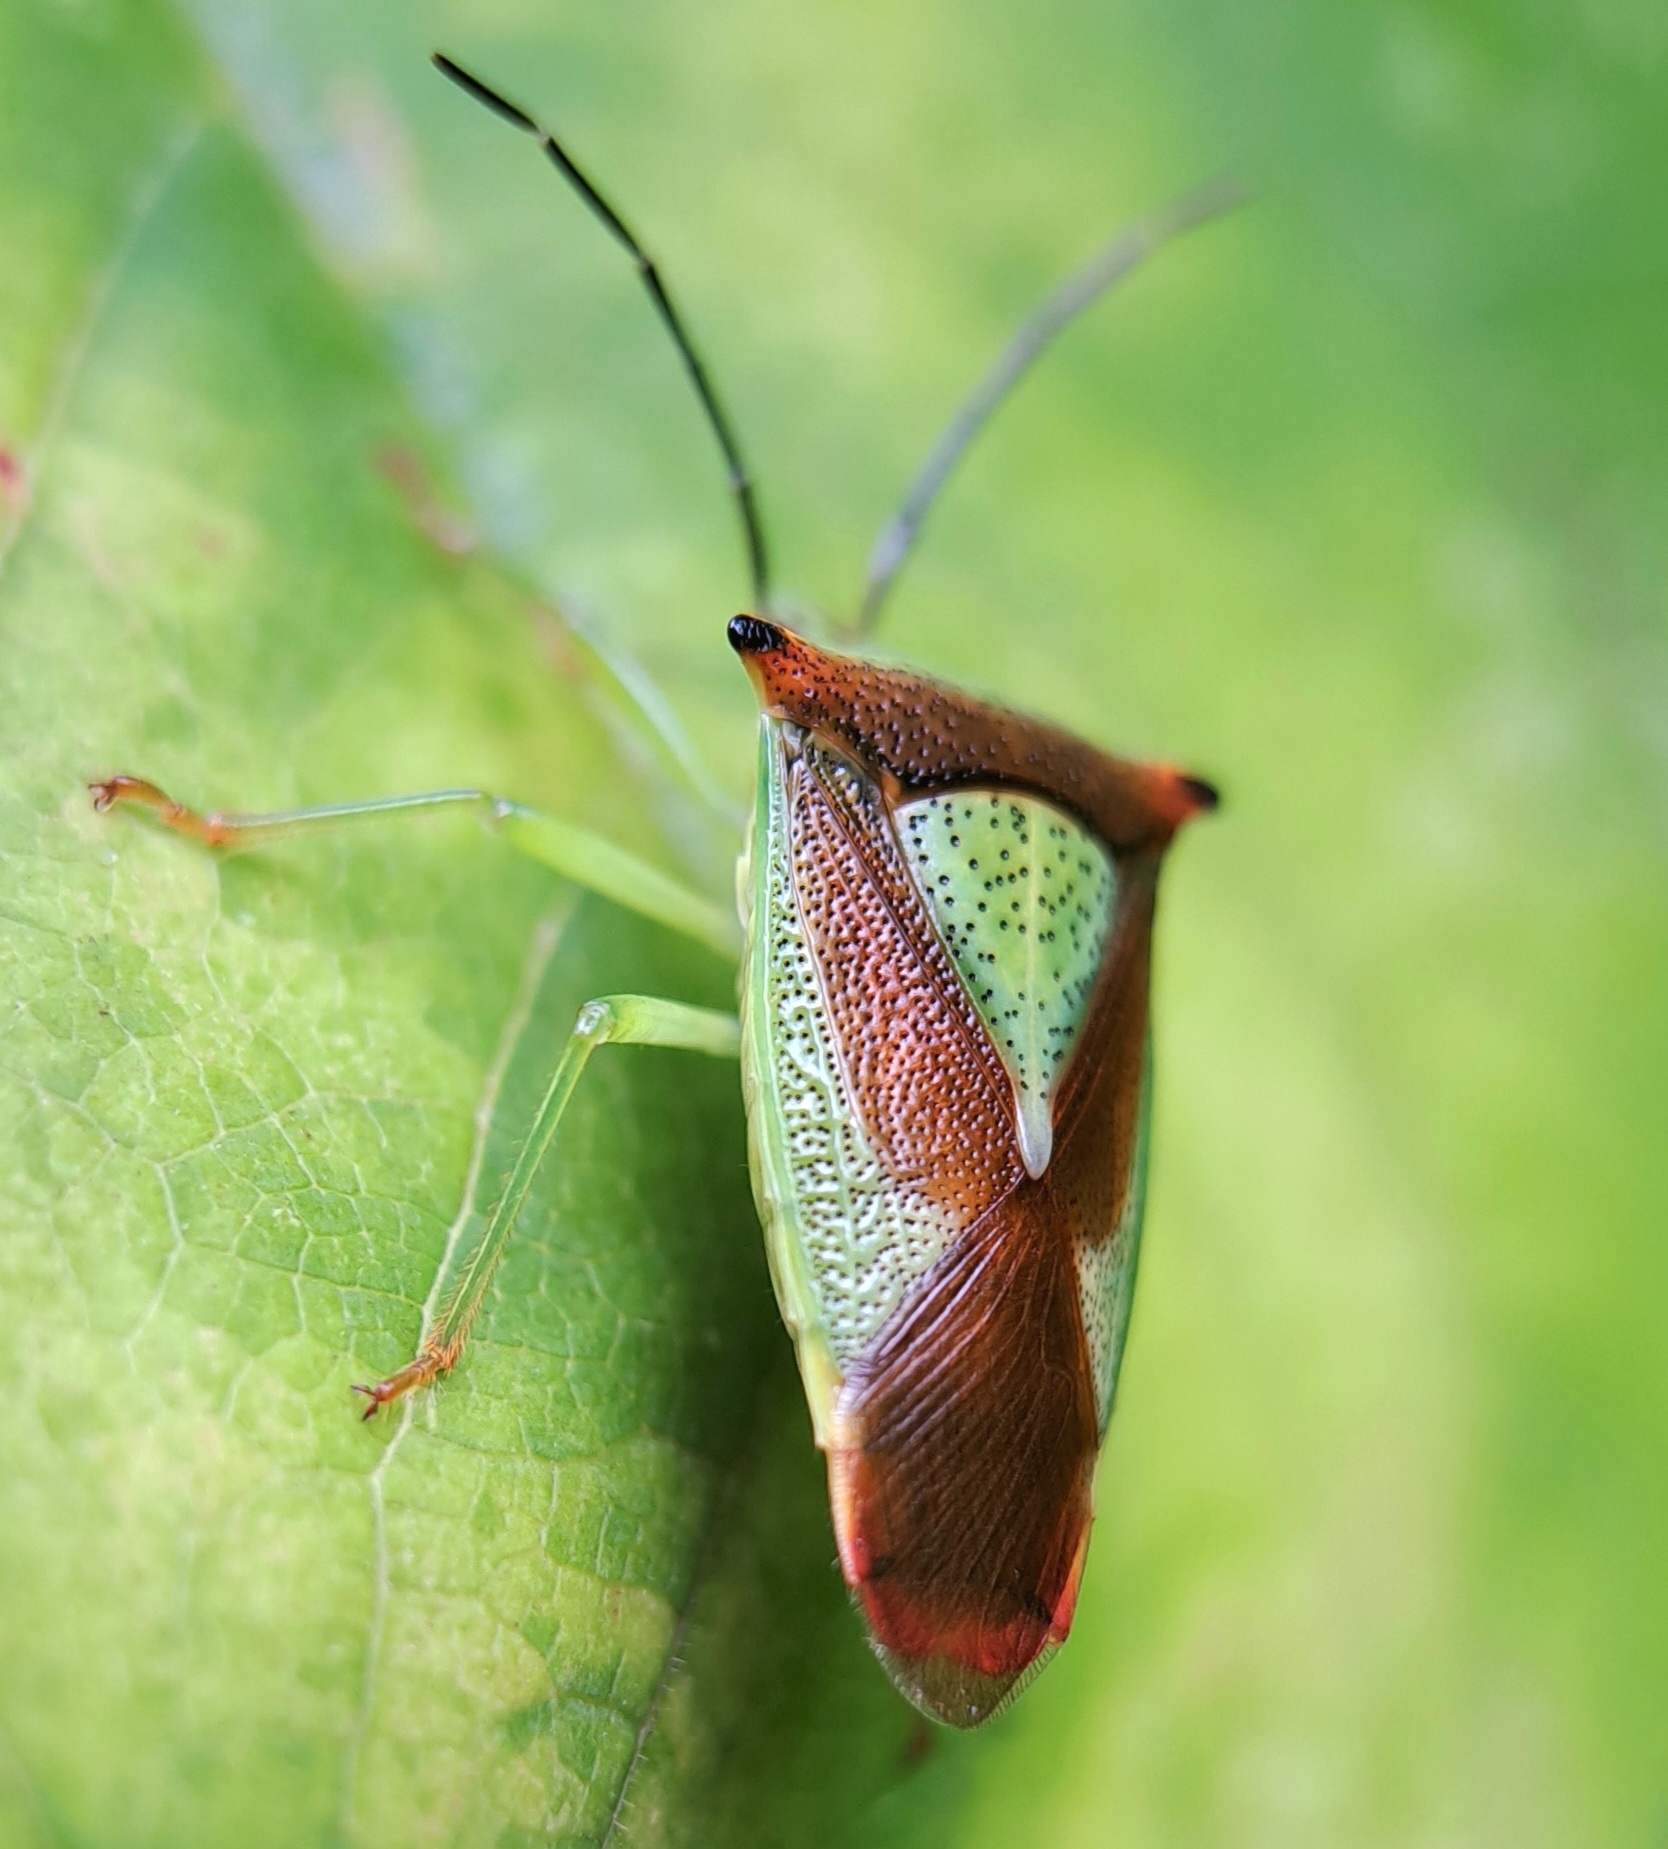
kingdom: Animalia
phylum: Arthropoda
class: Insecta
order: Hemiptera
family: Acanthosomatidae
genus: Acanthosoma
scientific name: Acanthosoma haemorrhoidale
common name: Hawthorn shieldbug
